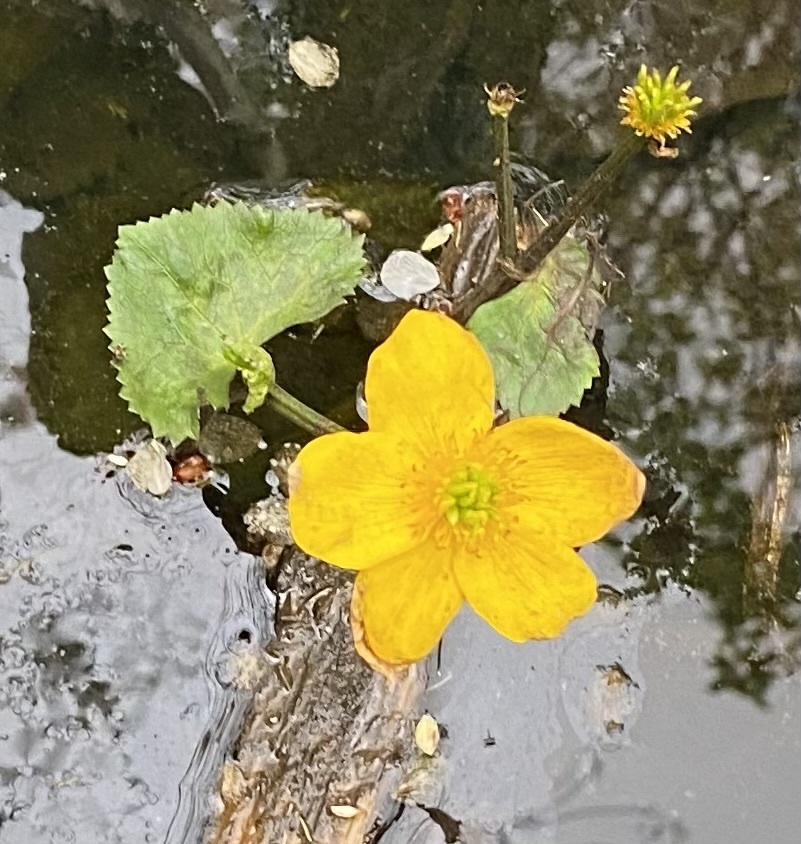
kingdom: Plantae
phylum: Tracheophyta
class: Magnoliopsida
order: Ranunculales
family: Ranunculaceae
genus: Caltha
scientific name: Caltha palustris
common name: Marsh marigold
